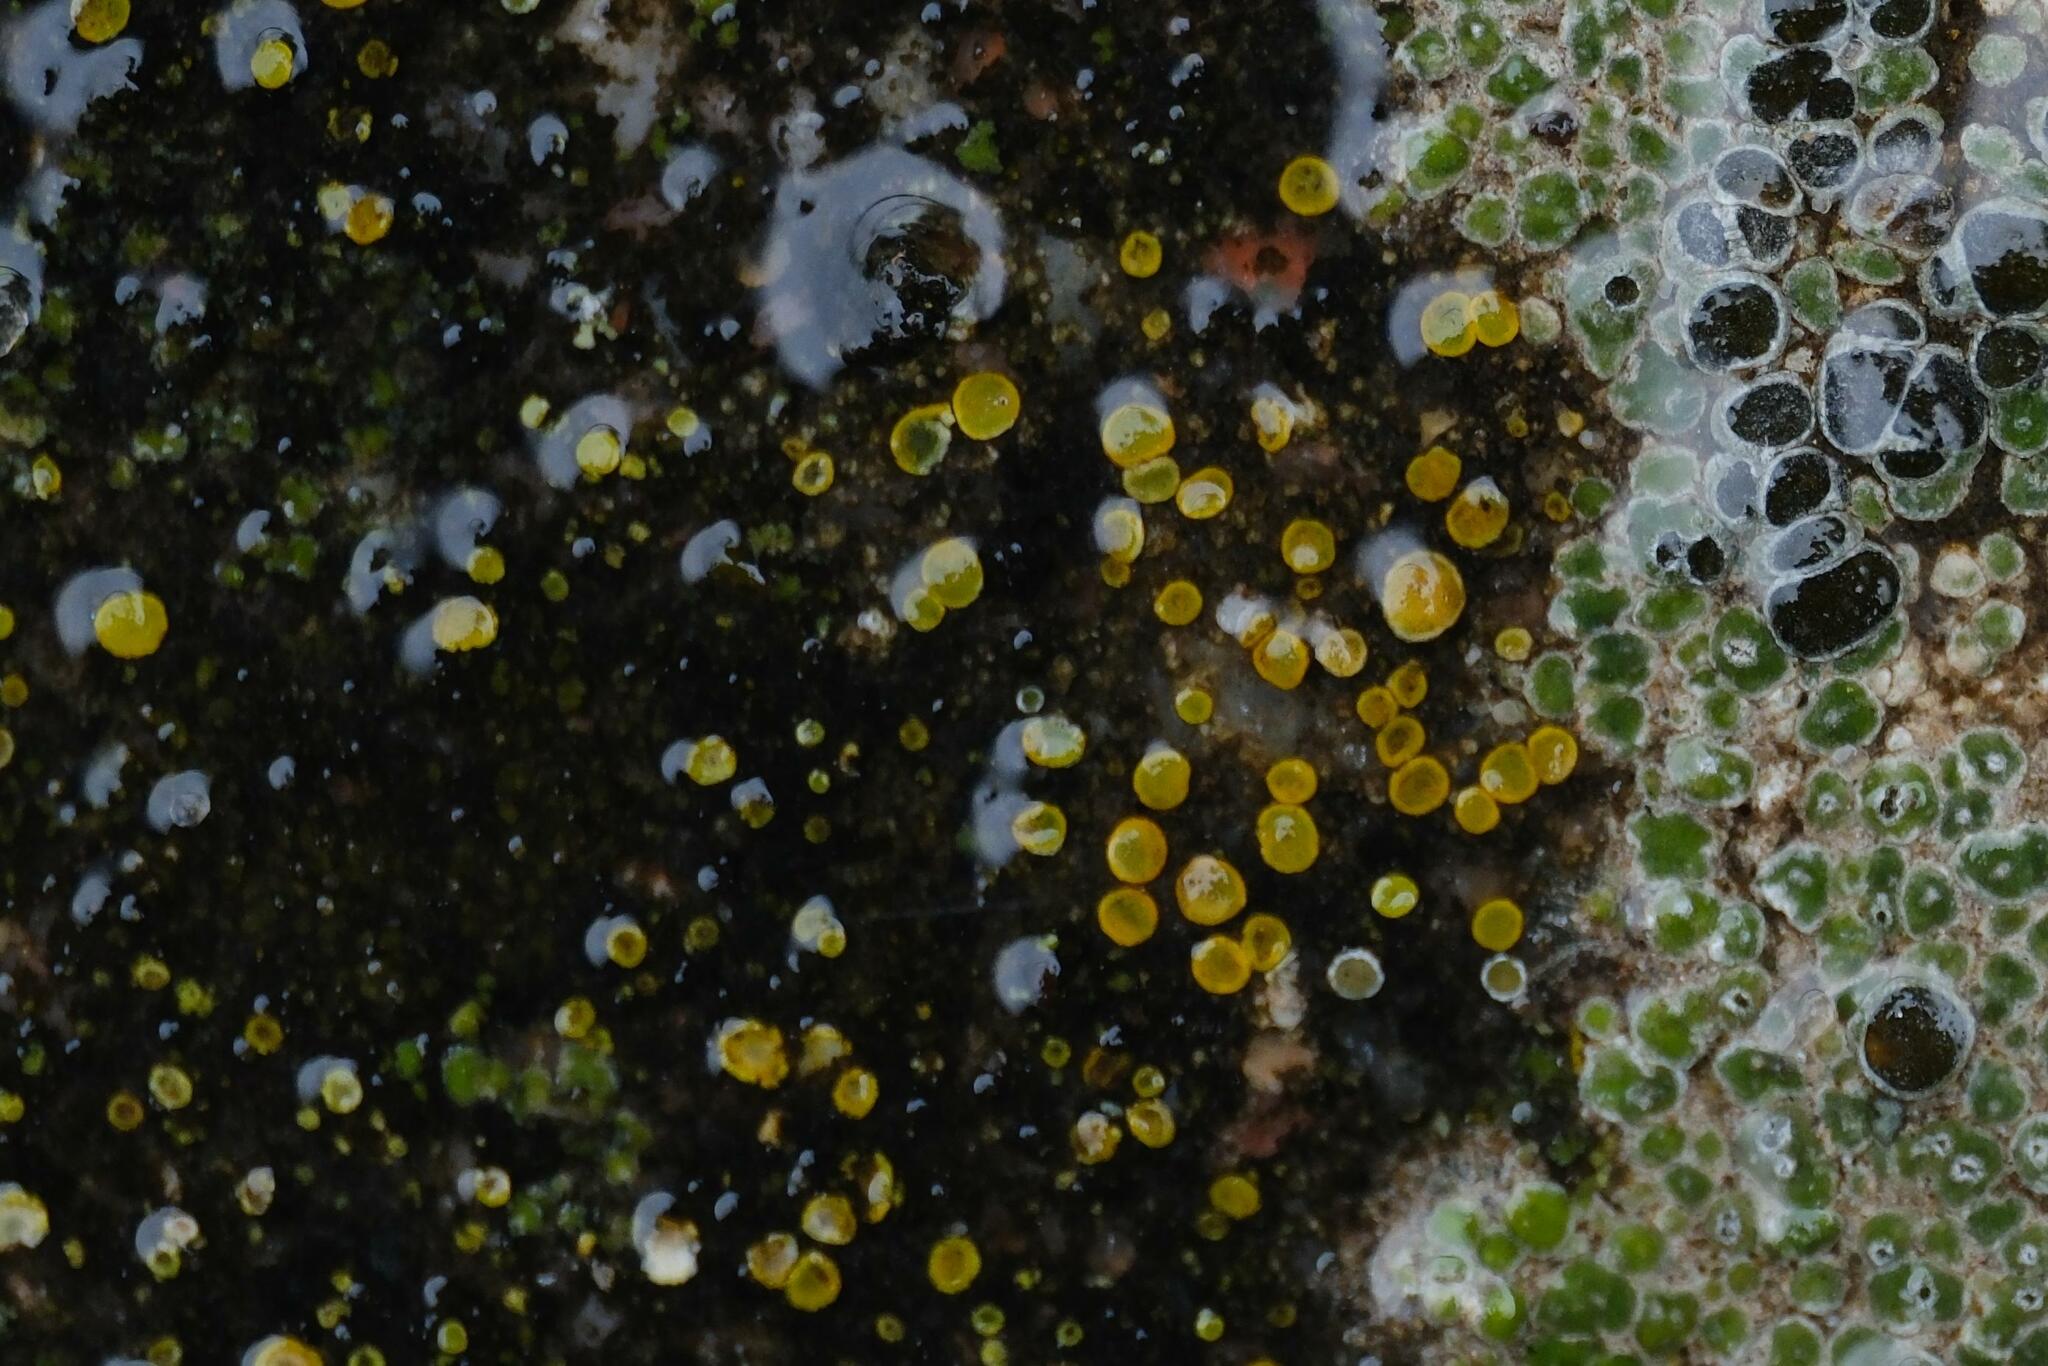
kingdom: Fungi
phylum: Ascomycota
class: Candelariomycetes
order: Candelariales
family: Candelariaceae
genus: Candelariella
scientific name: Candelariella aurella
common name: Hidden goldspeck lichen
